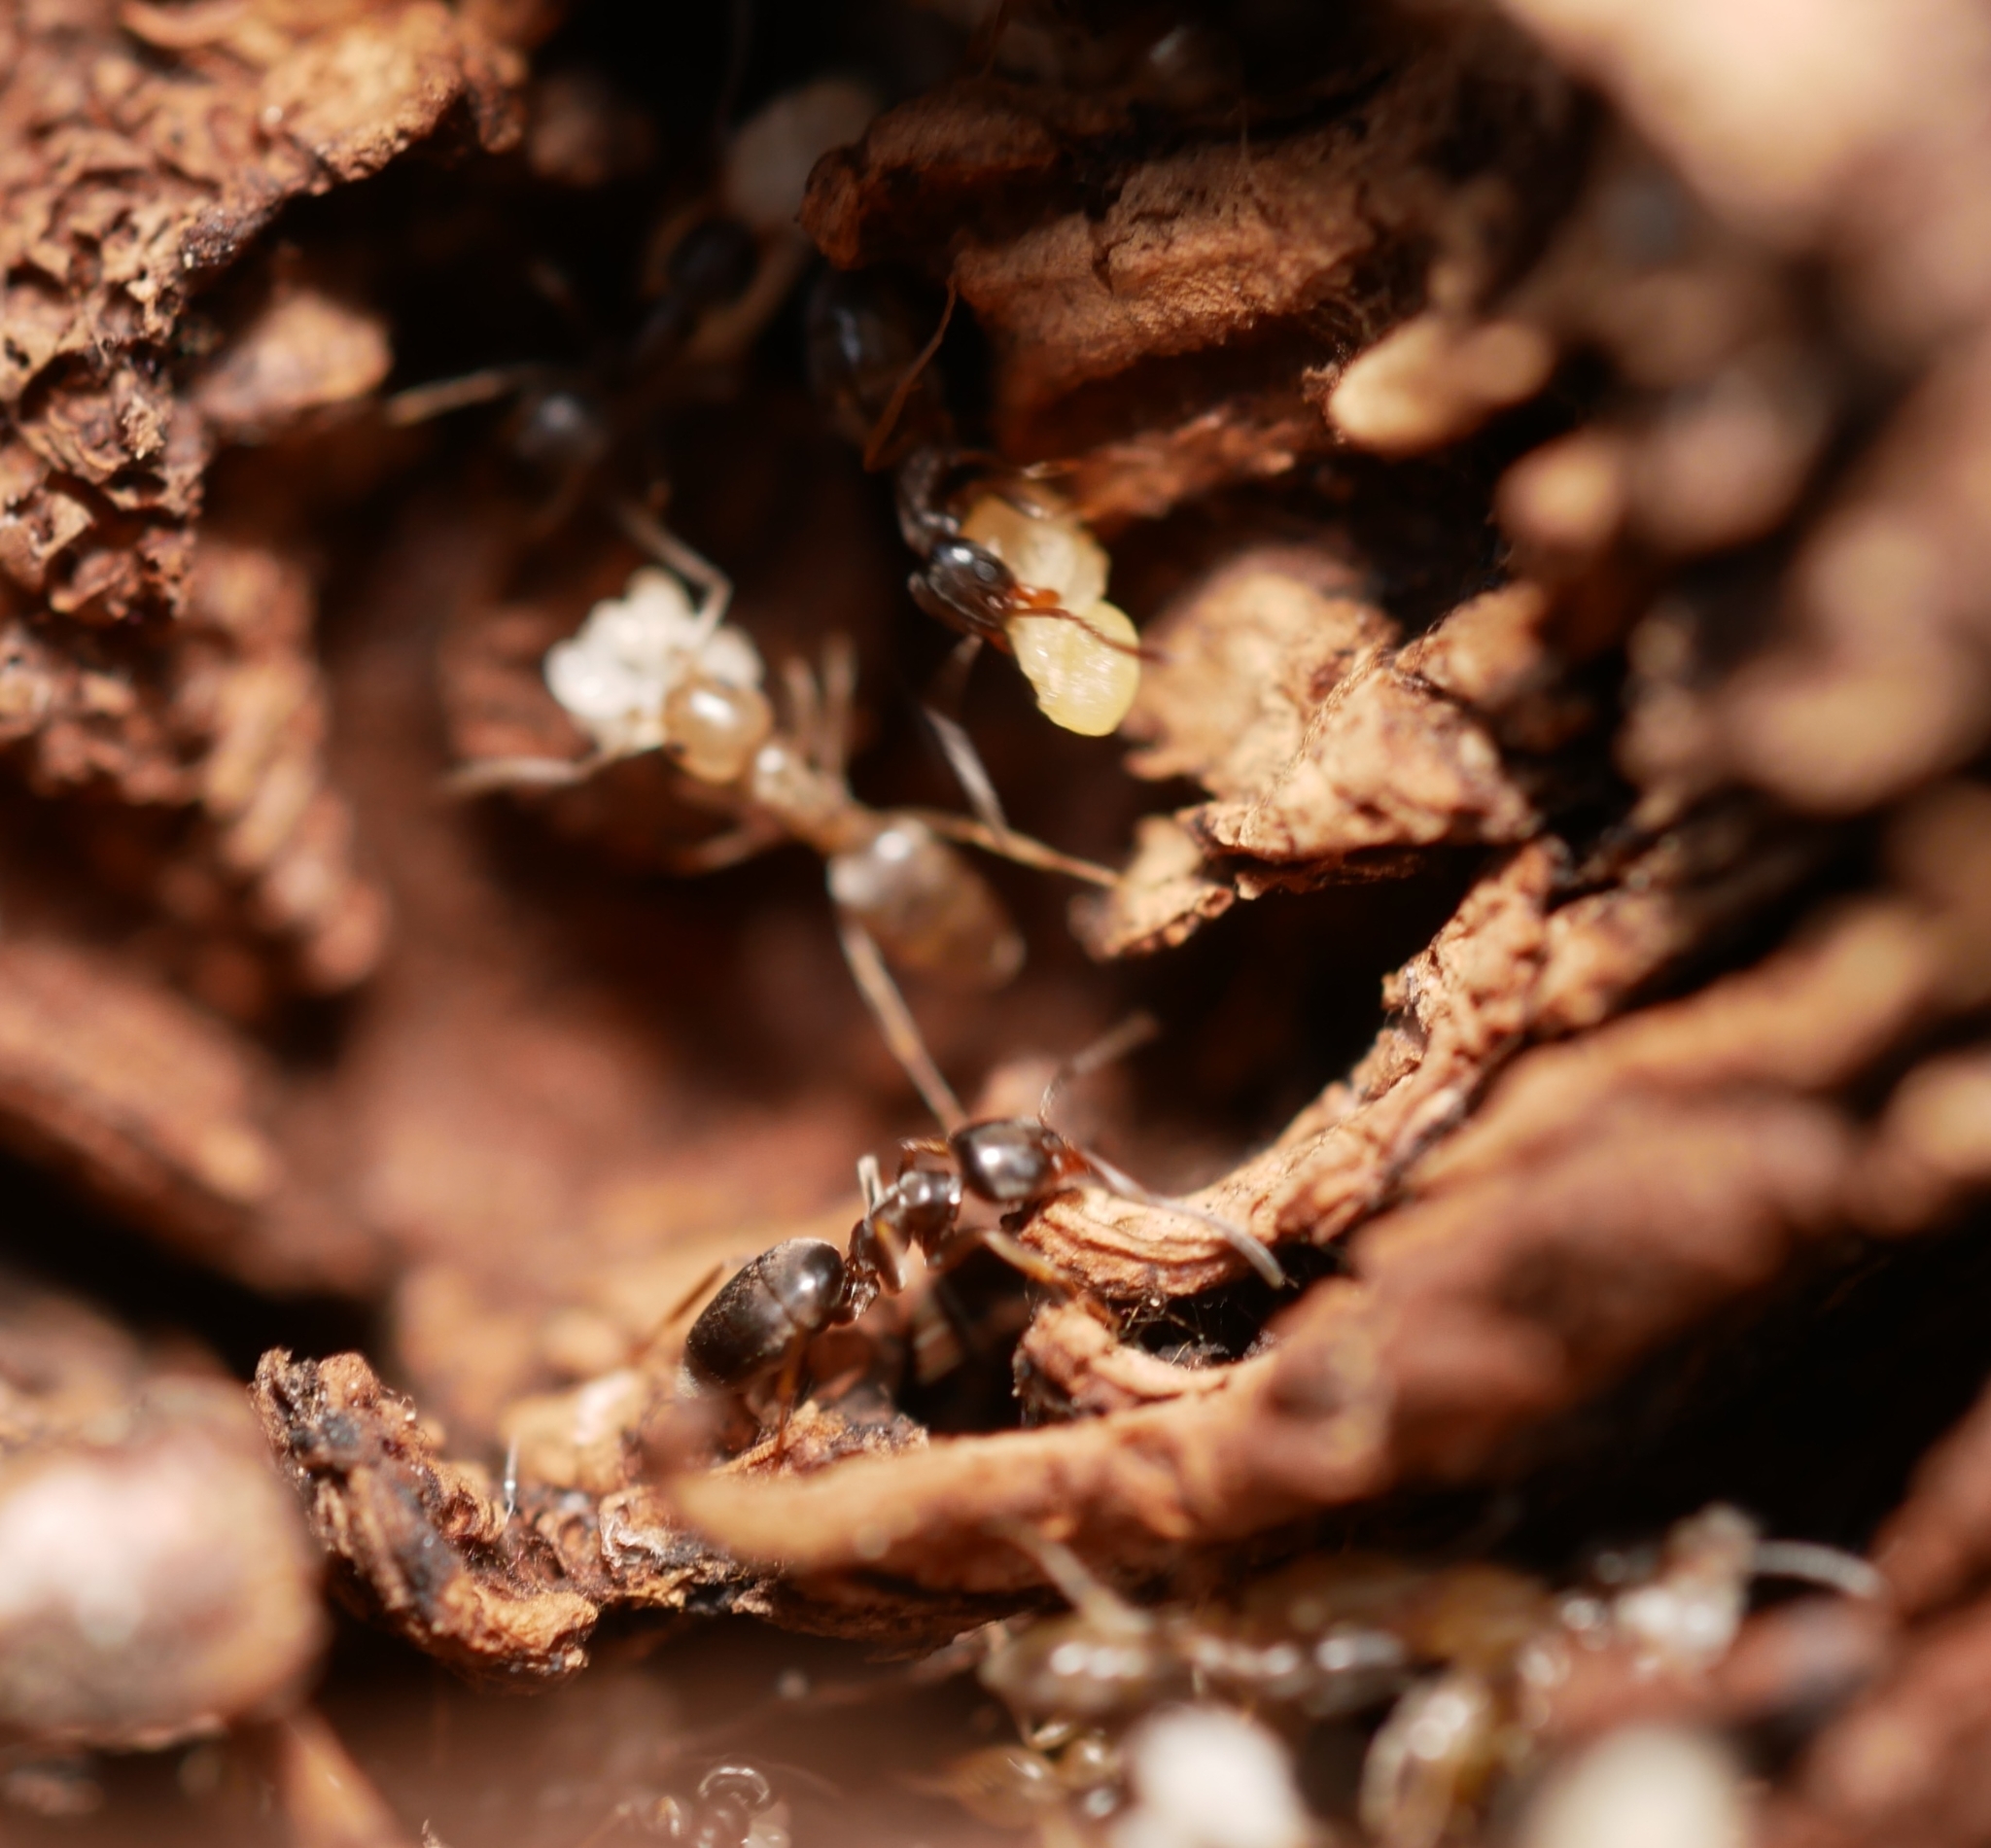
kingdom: Animalia
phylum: Arthropoda
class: Insecta
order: Hymenoptera
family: Formicidae
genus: Tapinoma
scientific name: Tapinoma sessile
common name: Odorous house ant
